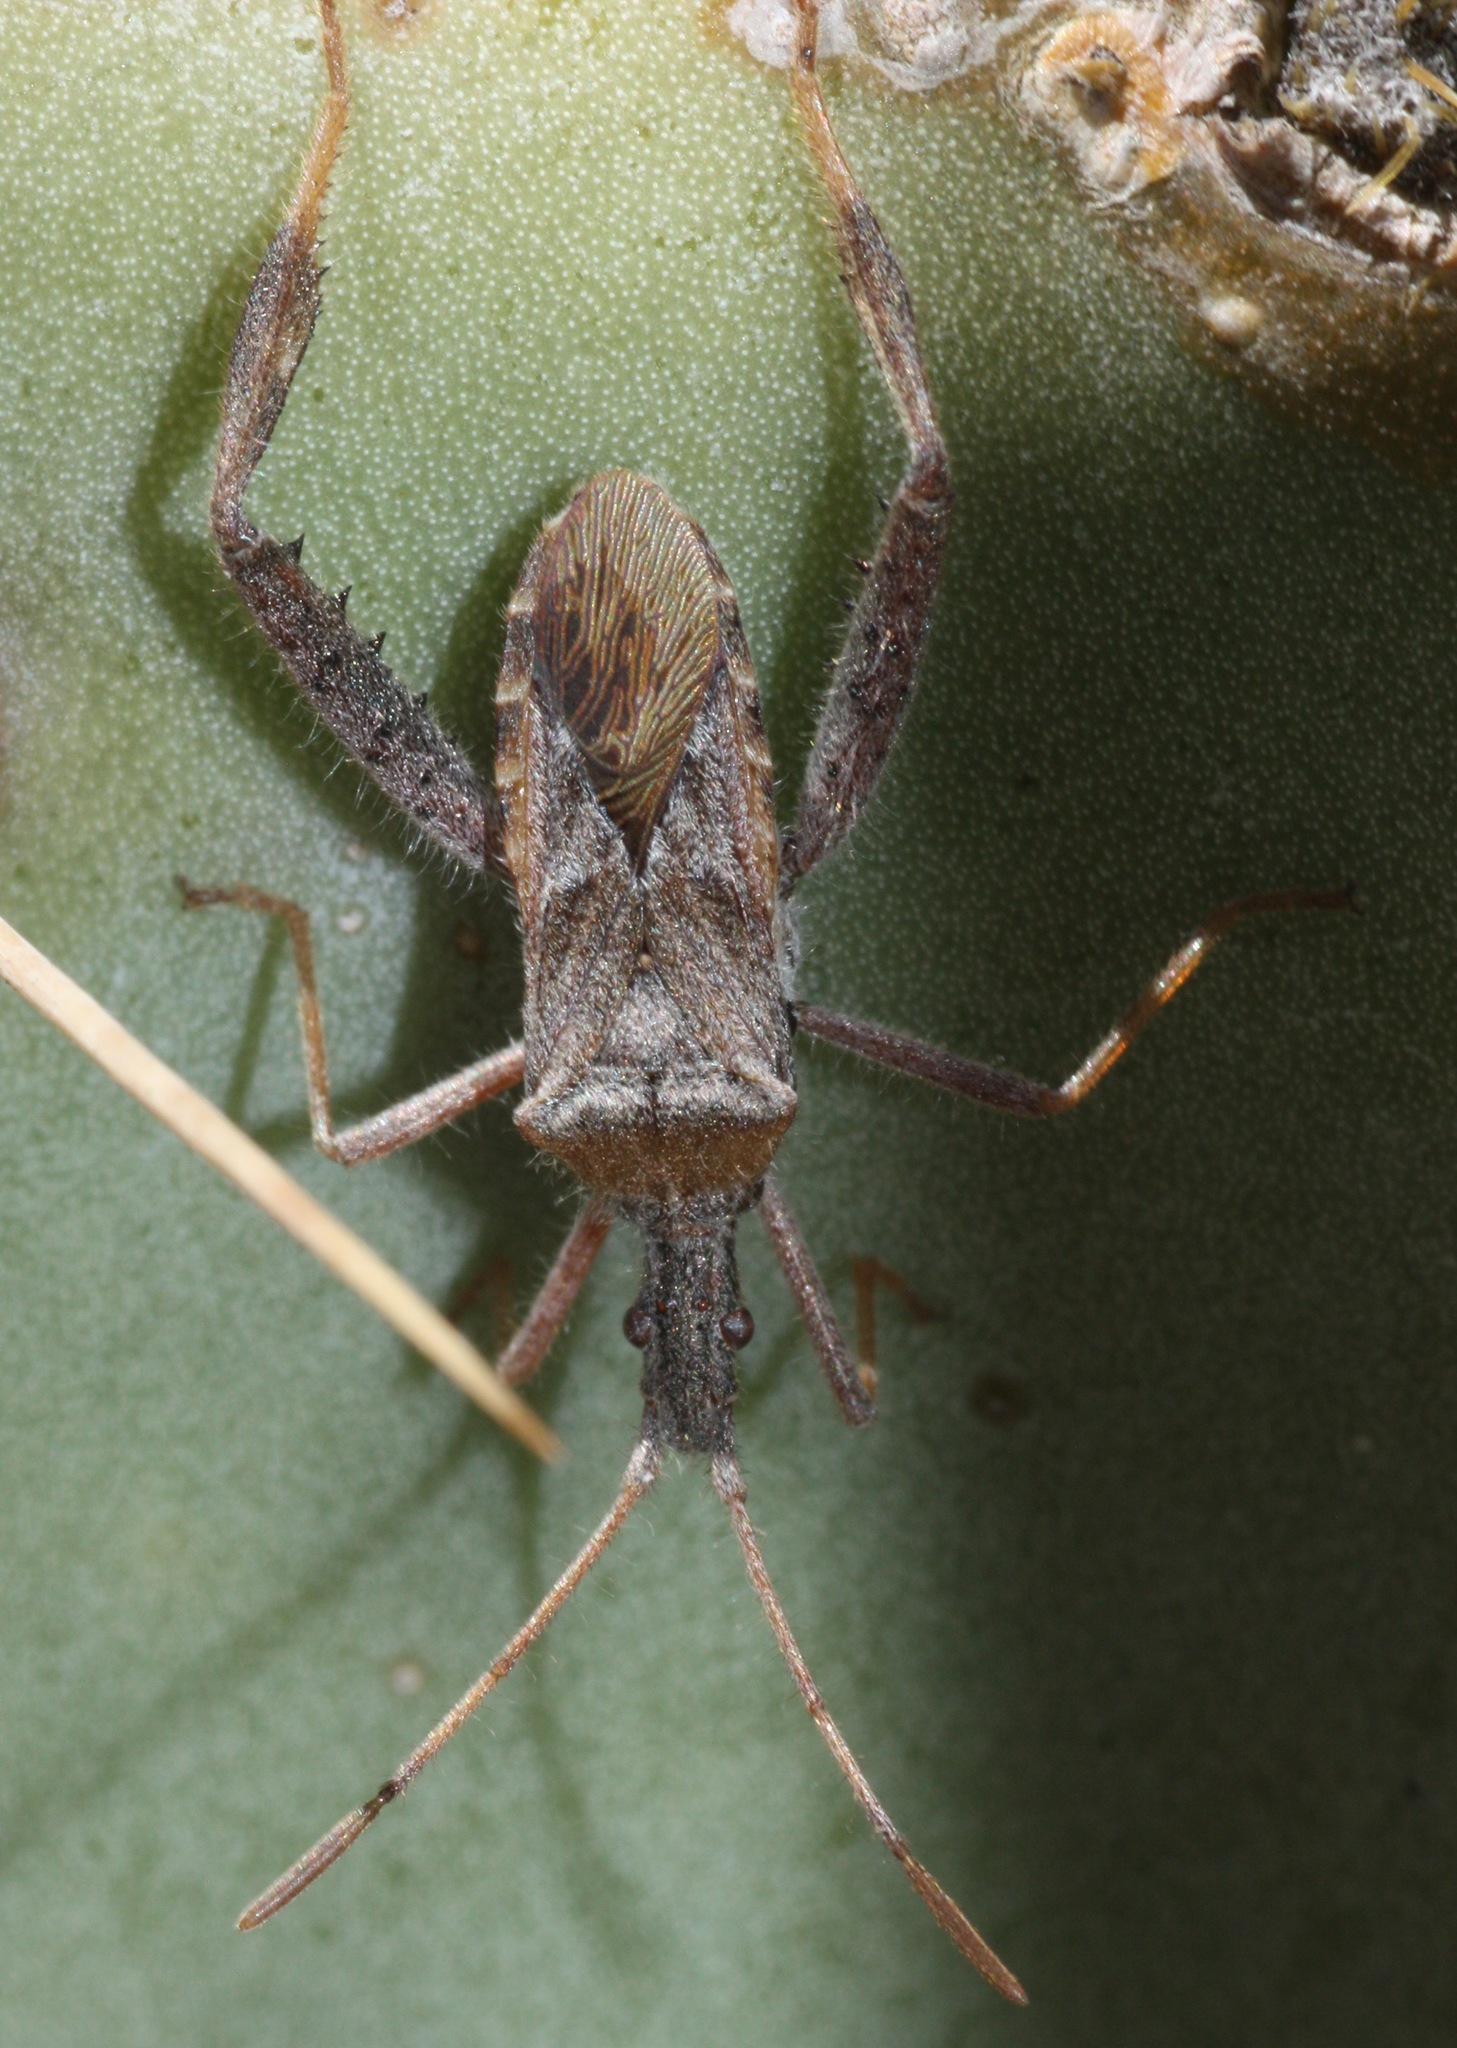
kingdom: Animalia
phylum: Arthropoda
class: Insecta
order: Hemiptera
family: Coreidae
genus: Narnia
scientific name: Narnia femorata
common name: Leaf-footed cactus bug
